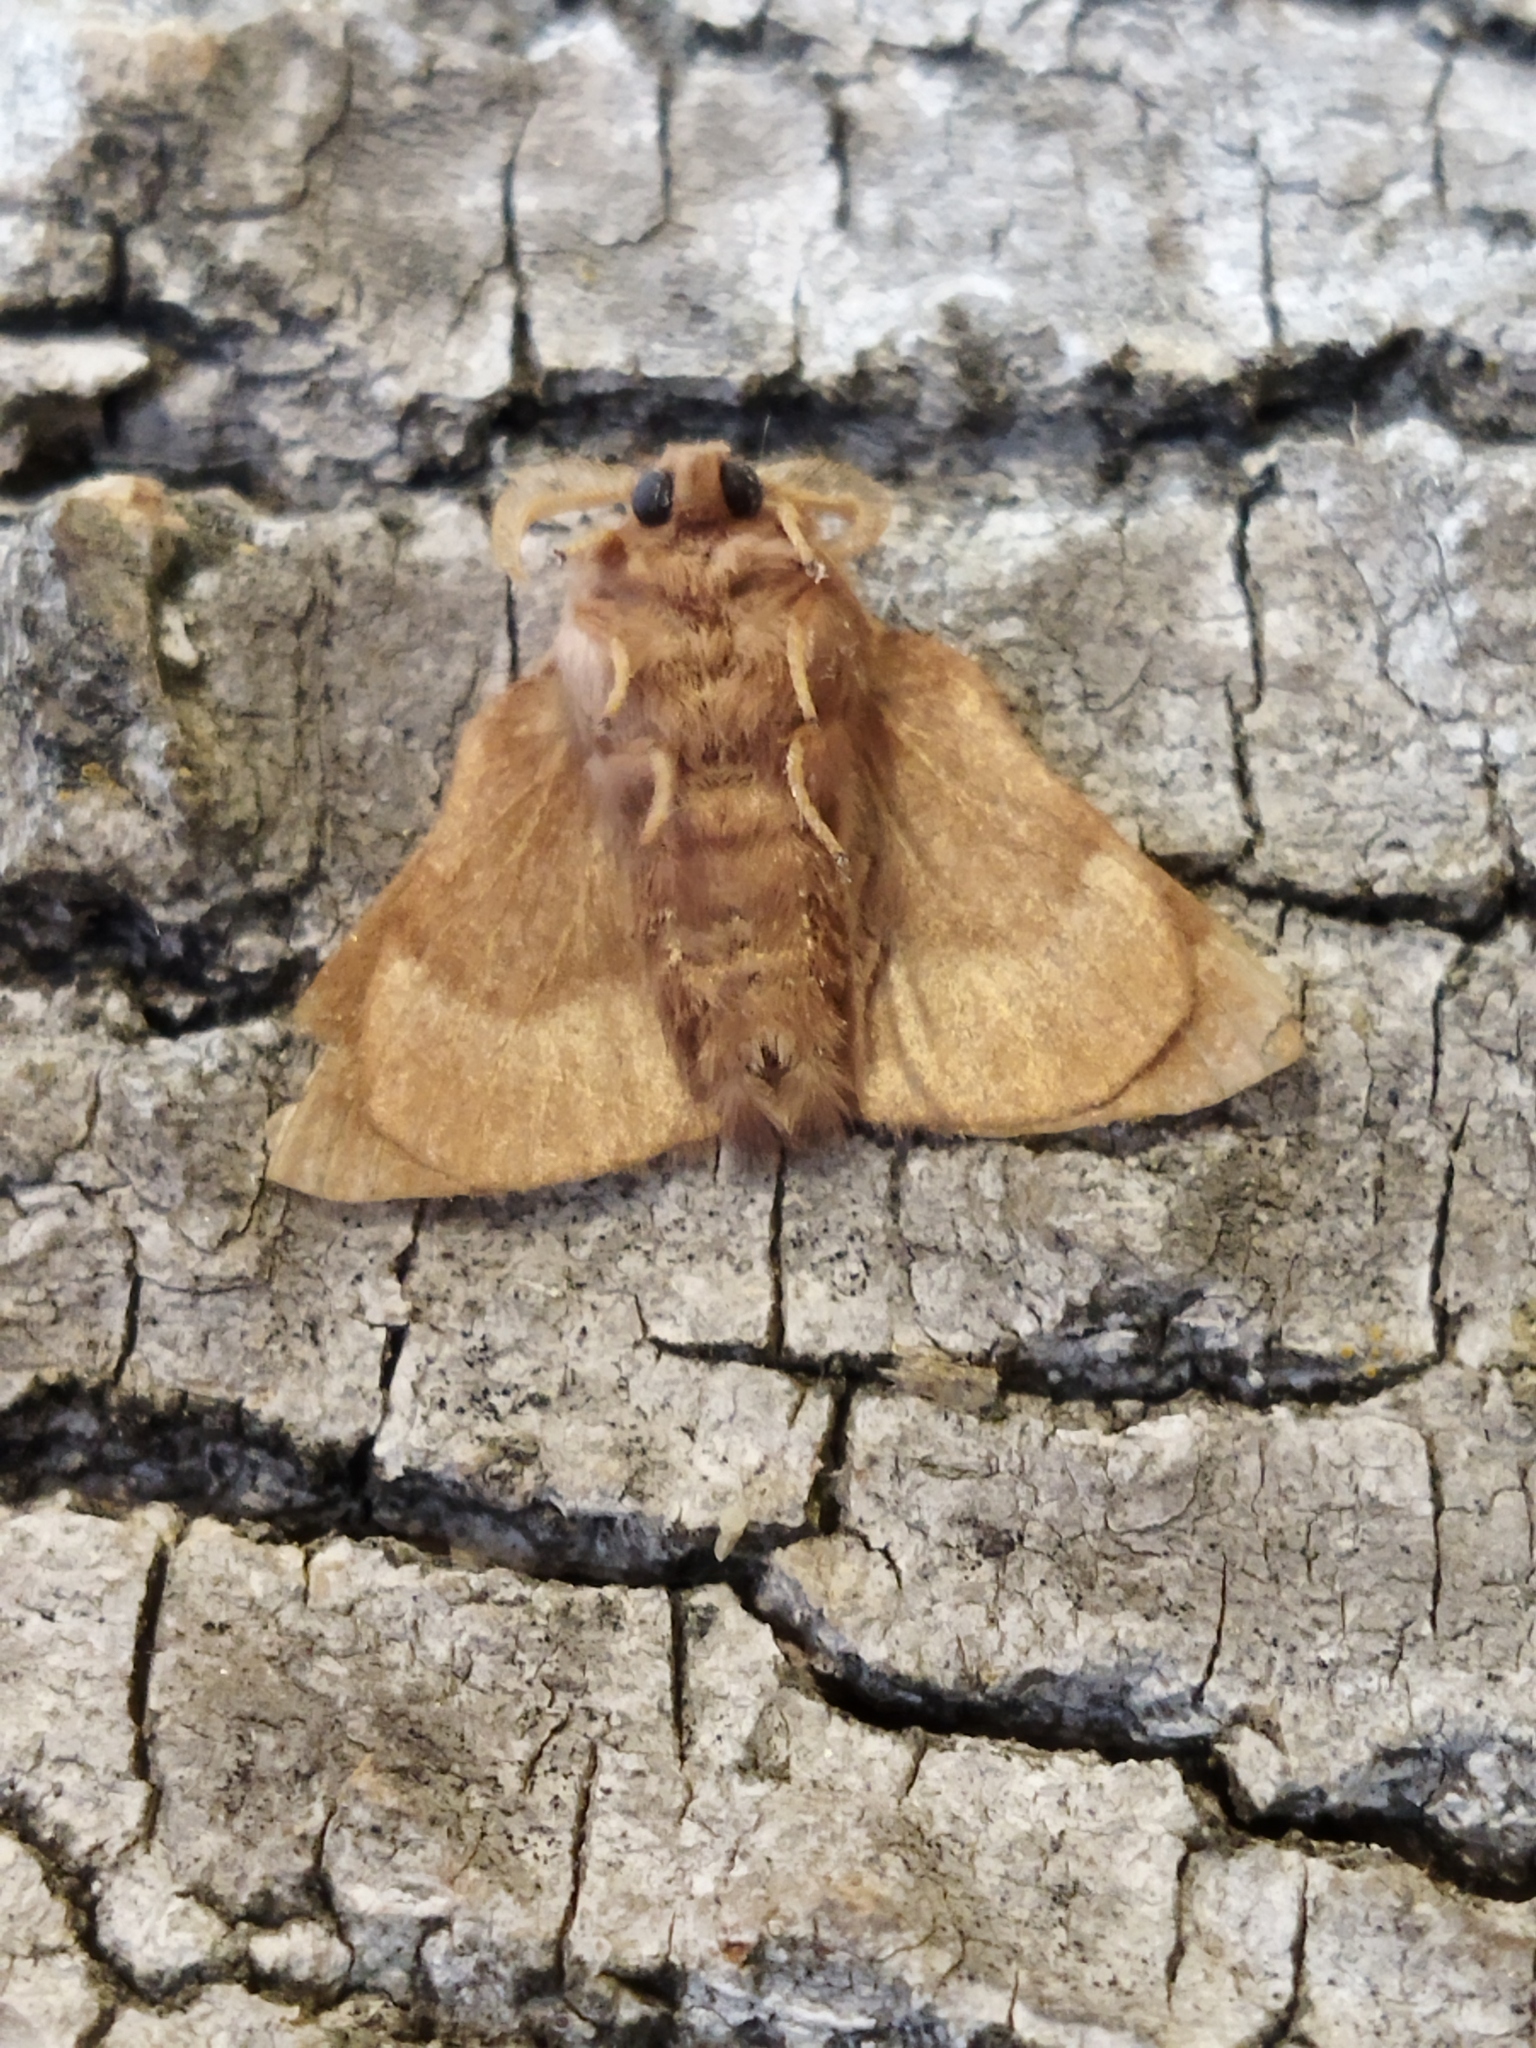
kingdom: Animalia
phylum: Arthropoda
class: Insecta
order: Lepidoptera
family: Lasiocampidae
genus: Malacosoma
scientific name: Malacosoma neustria
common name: The lackey
